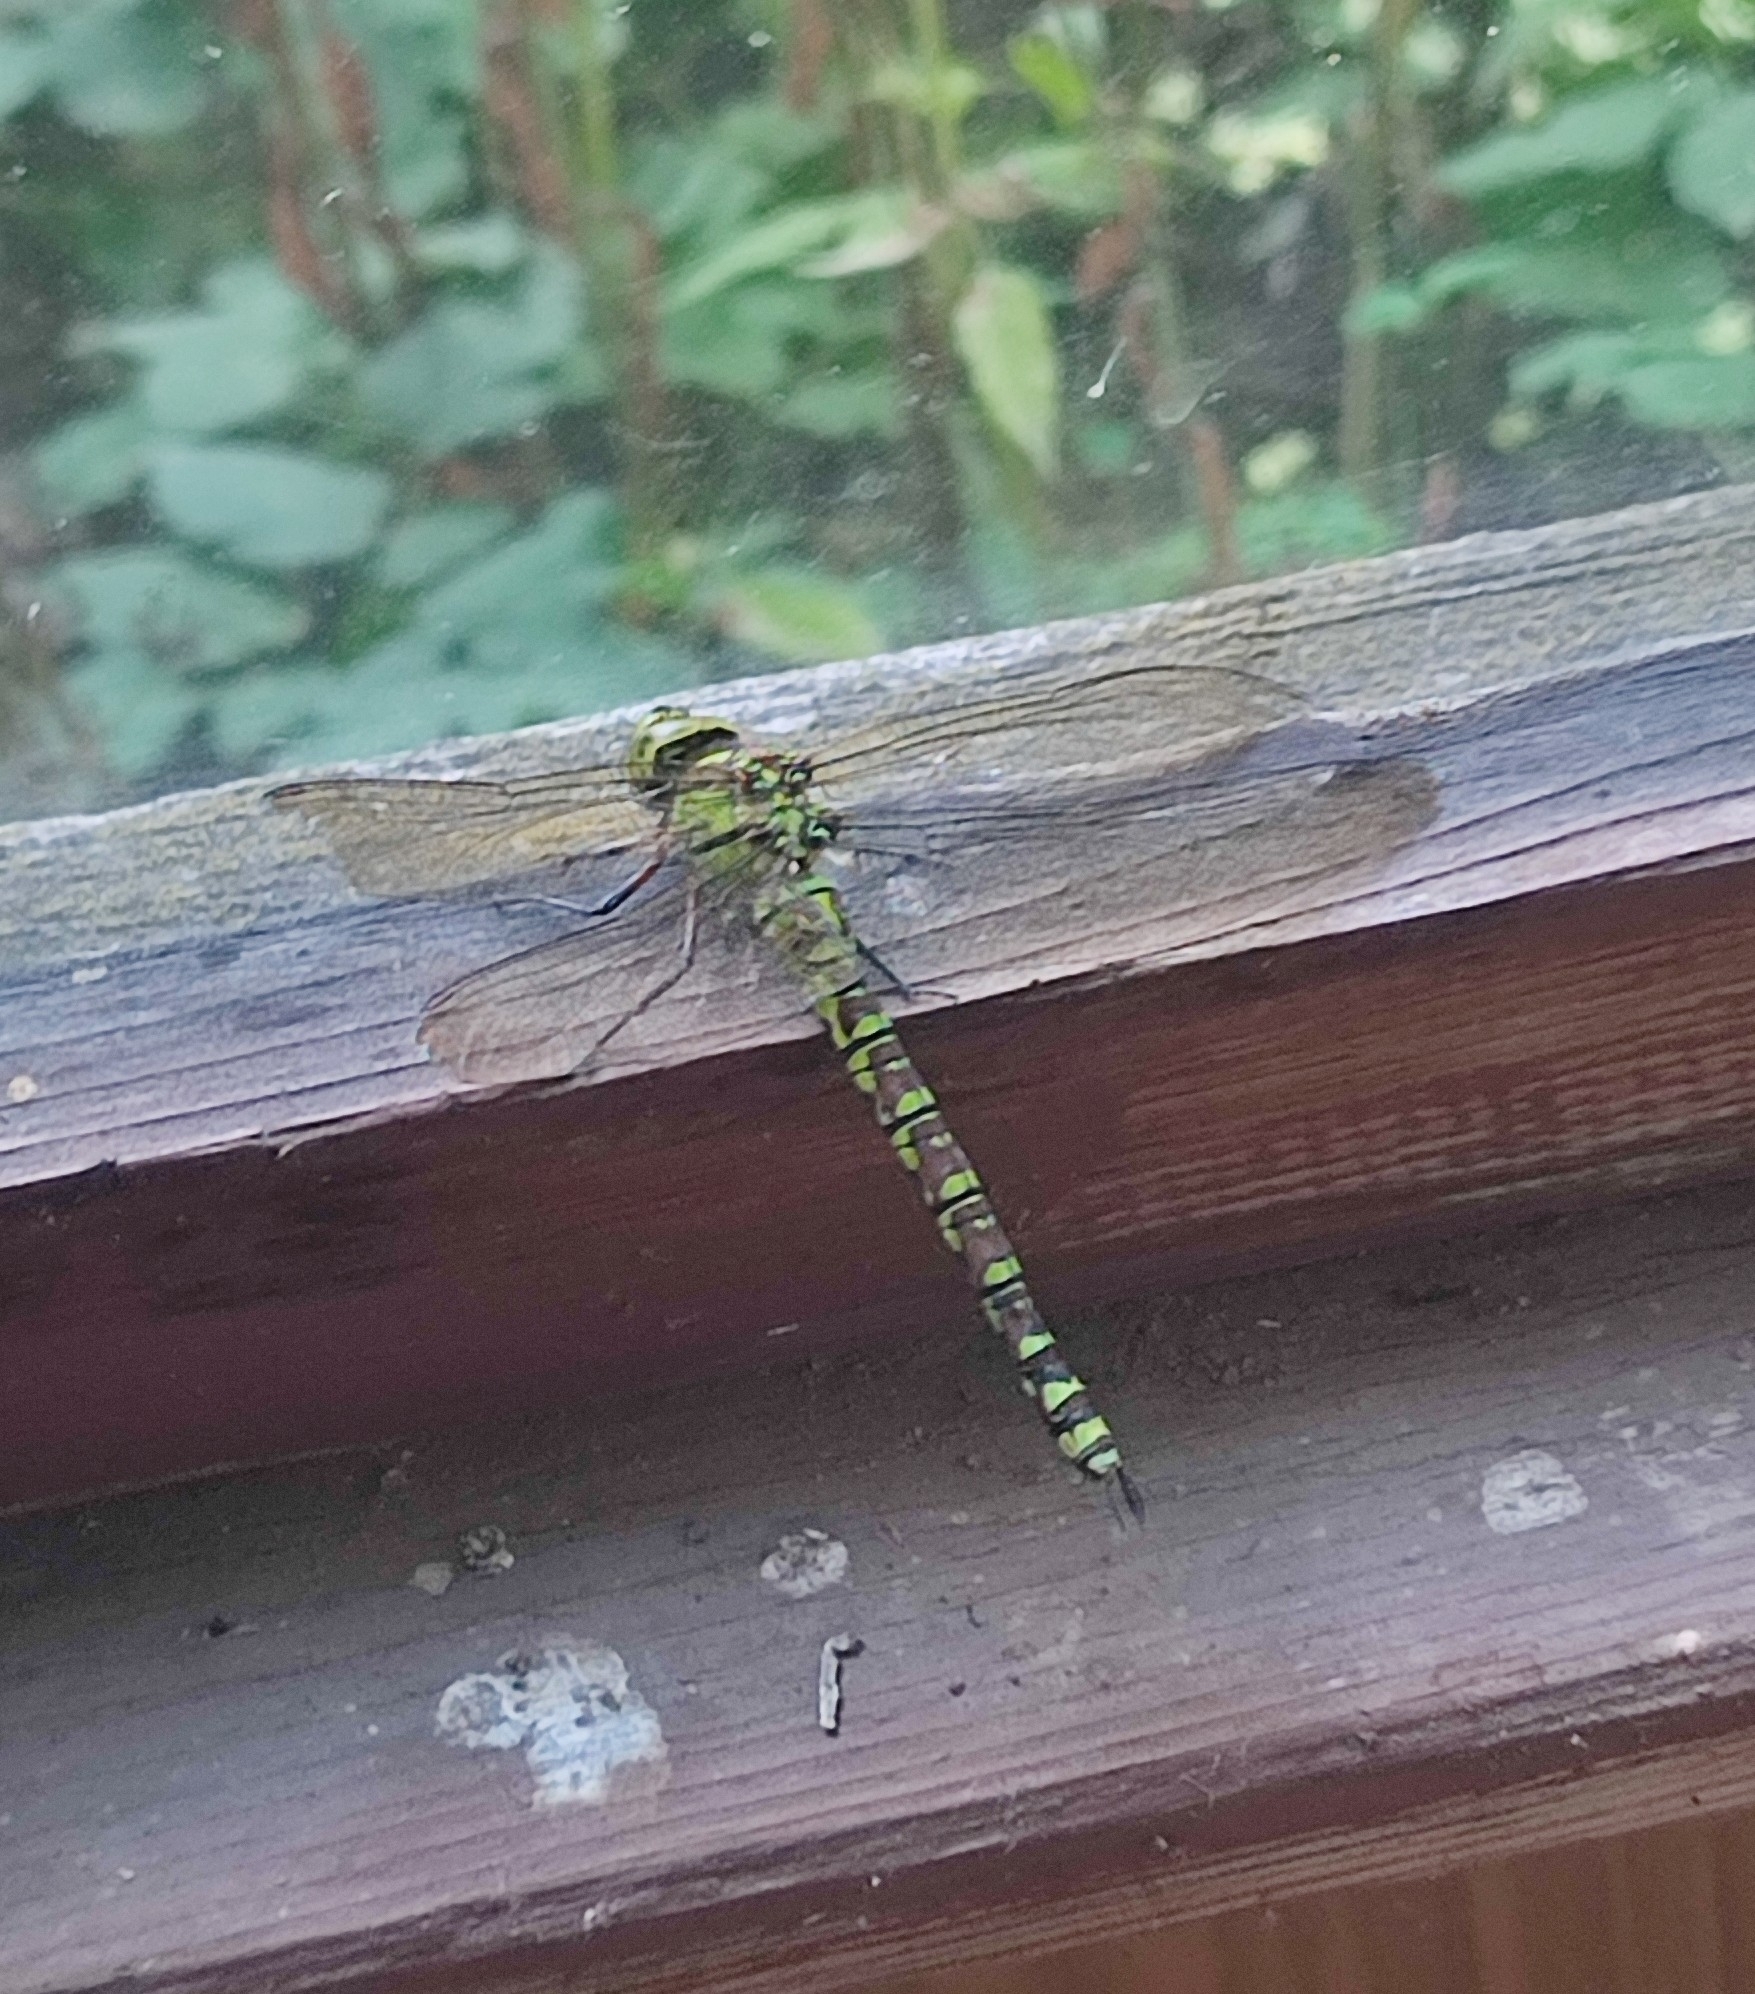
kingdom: Animalia
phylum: Arthropoda
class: Insecta
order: Odonata
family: Aeshnidae
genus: Aeshna
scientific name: Aeshna cyanea
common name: Southern hawker
